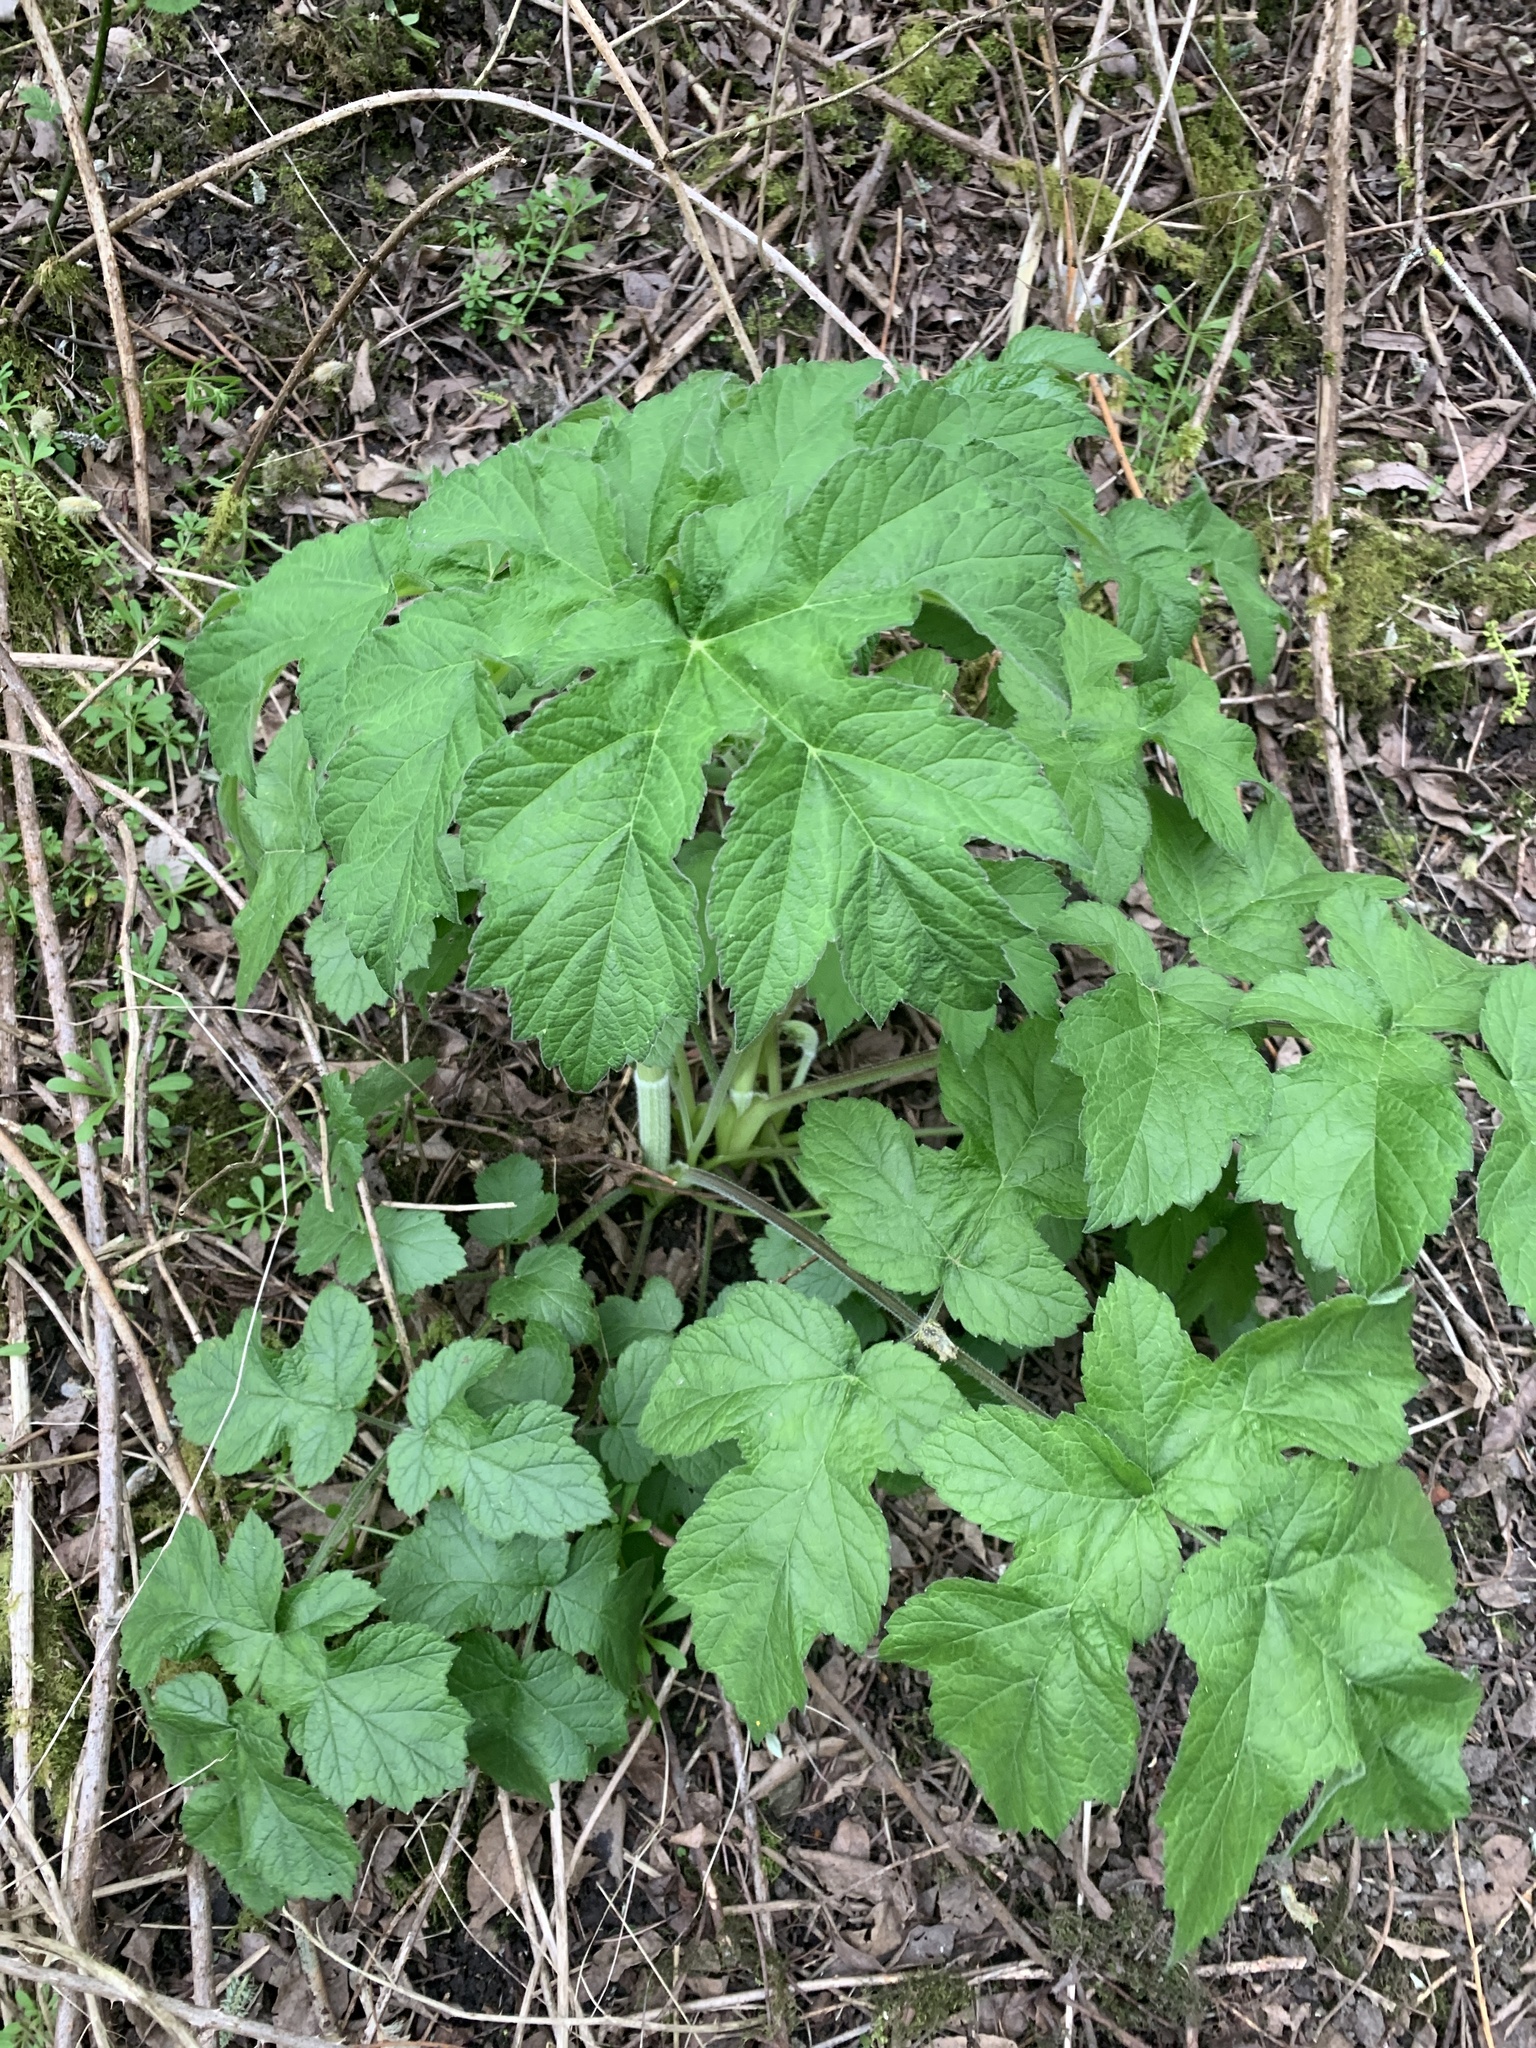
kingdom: Plantae
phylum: Tracheophyta
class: Magnoliopsida
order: Apiales
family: Apiaceae
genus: Heracleum
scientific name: Heracleum sphondylium
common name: Hogweed
